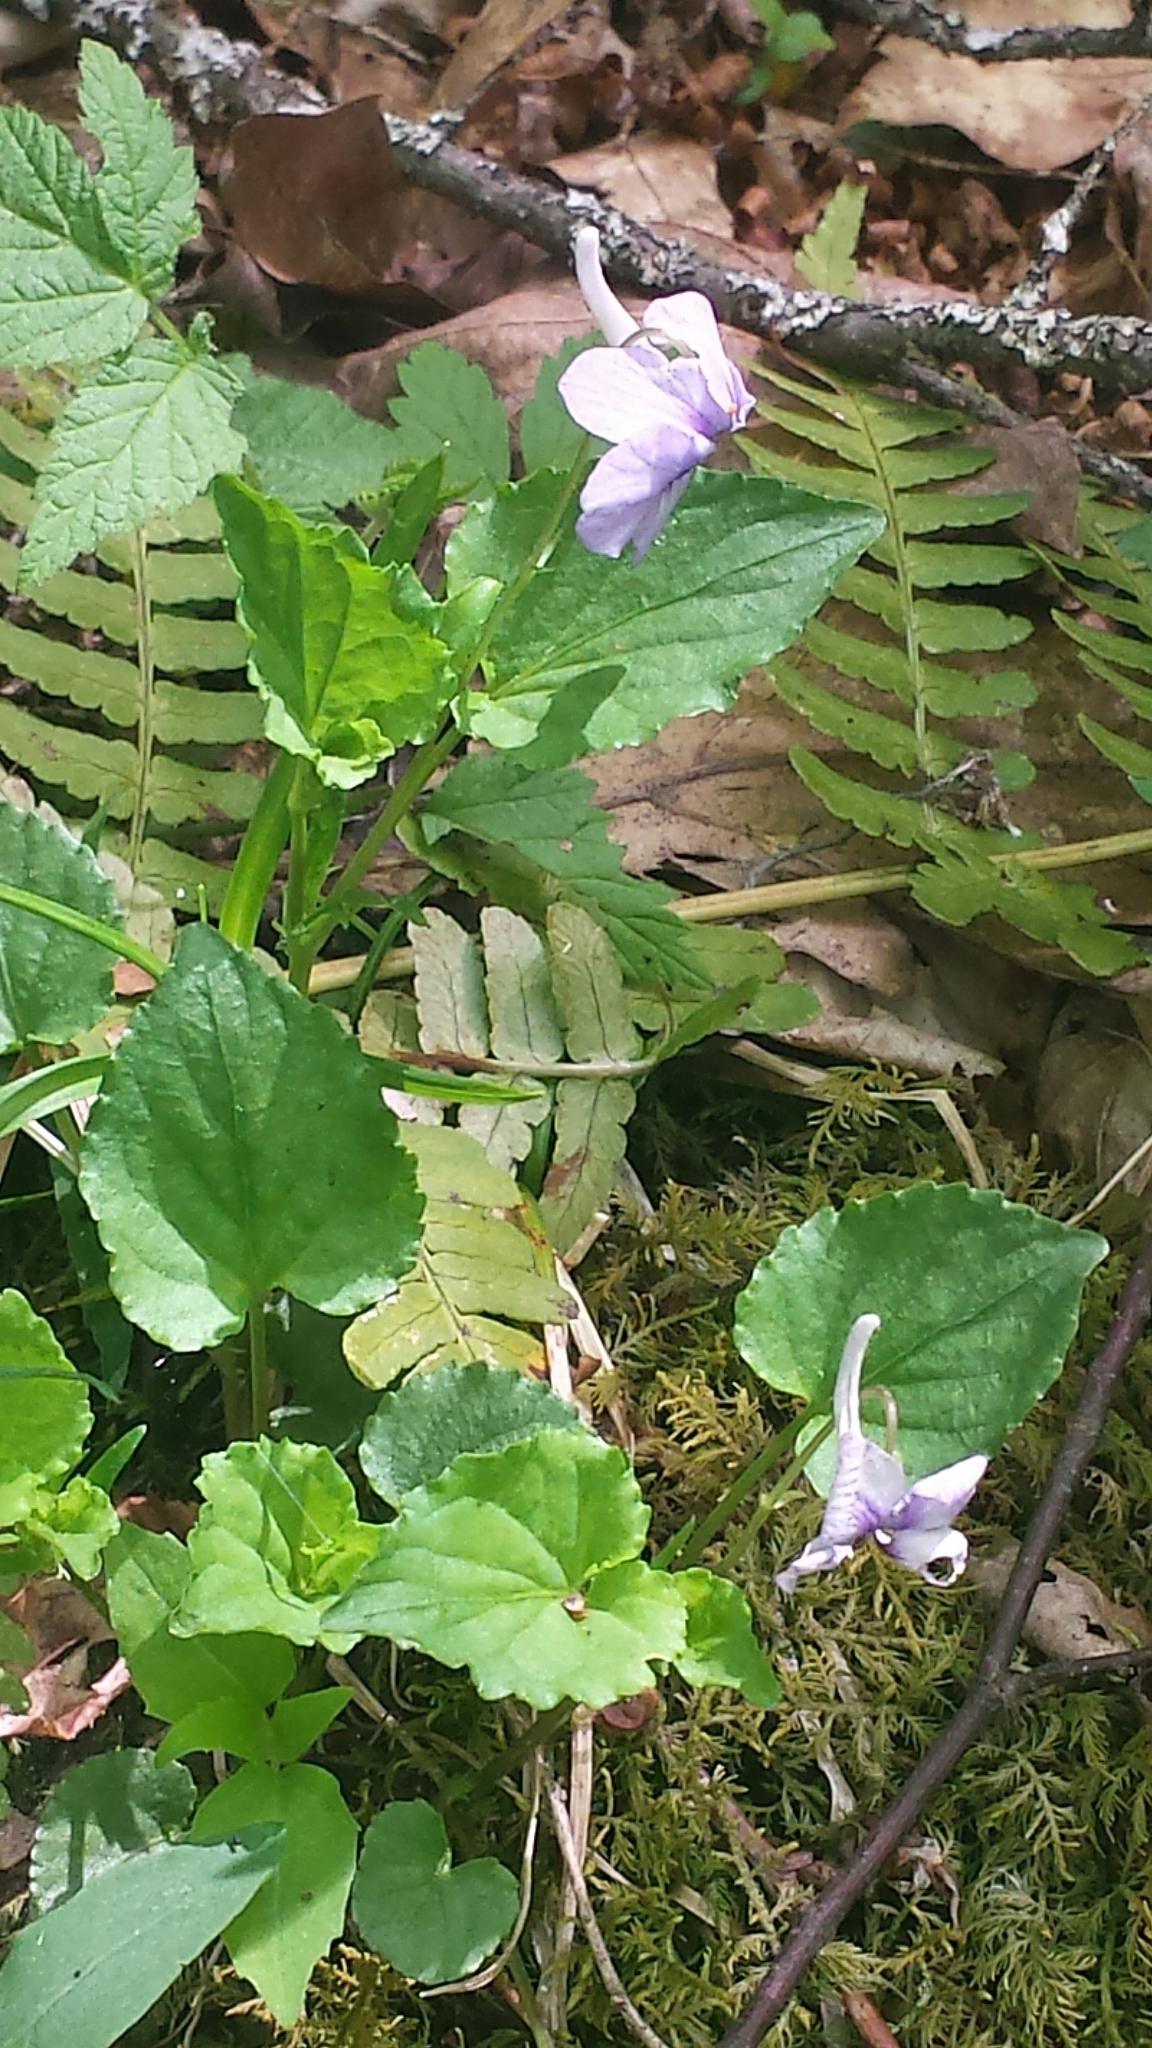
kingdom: Plantae
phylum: Tracheophyta
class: Magnoliopsida
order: Malpighiales
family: Violaceae
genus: Viola
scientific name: Viola rostrata
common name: Long-spur violet
